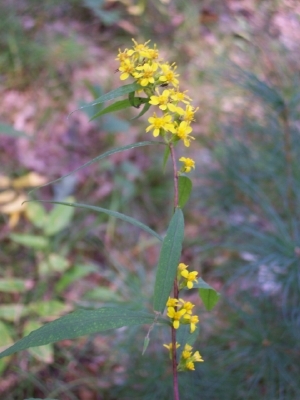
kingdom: Plantae
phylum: Tracheophyta
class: Magnoliopsida
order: Asterales
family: Asteraceae
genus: Solidago
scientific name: Solidago caesia
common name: Woodland goldenrod
